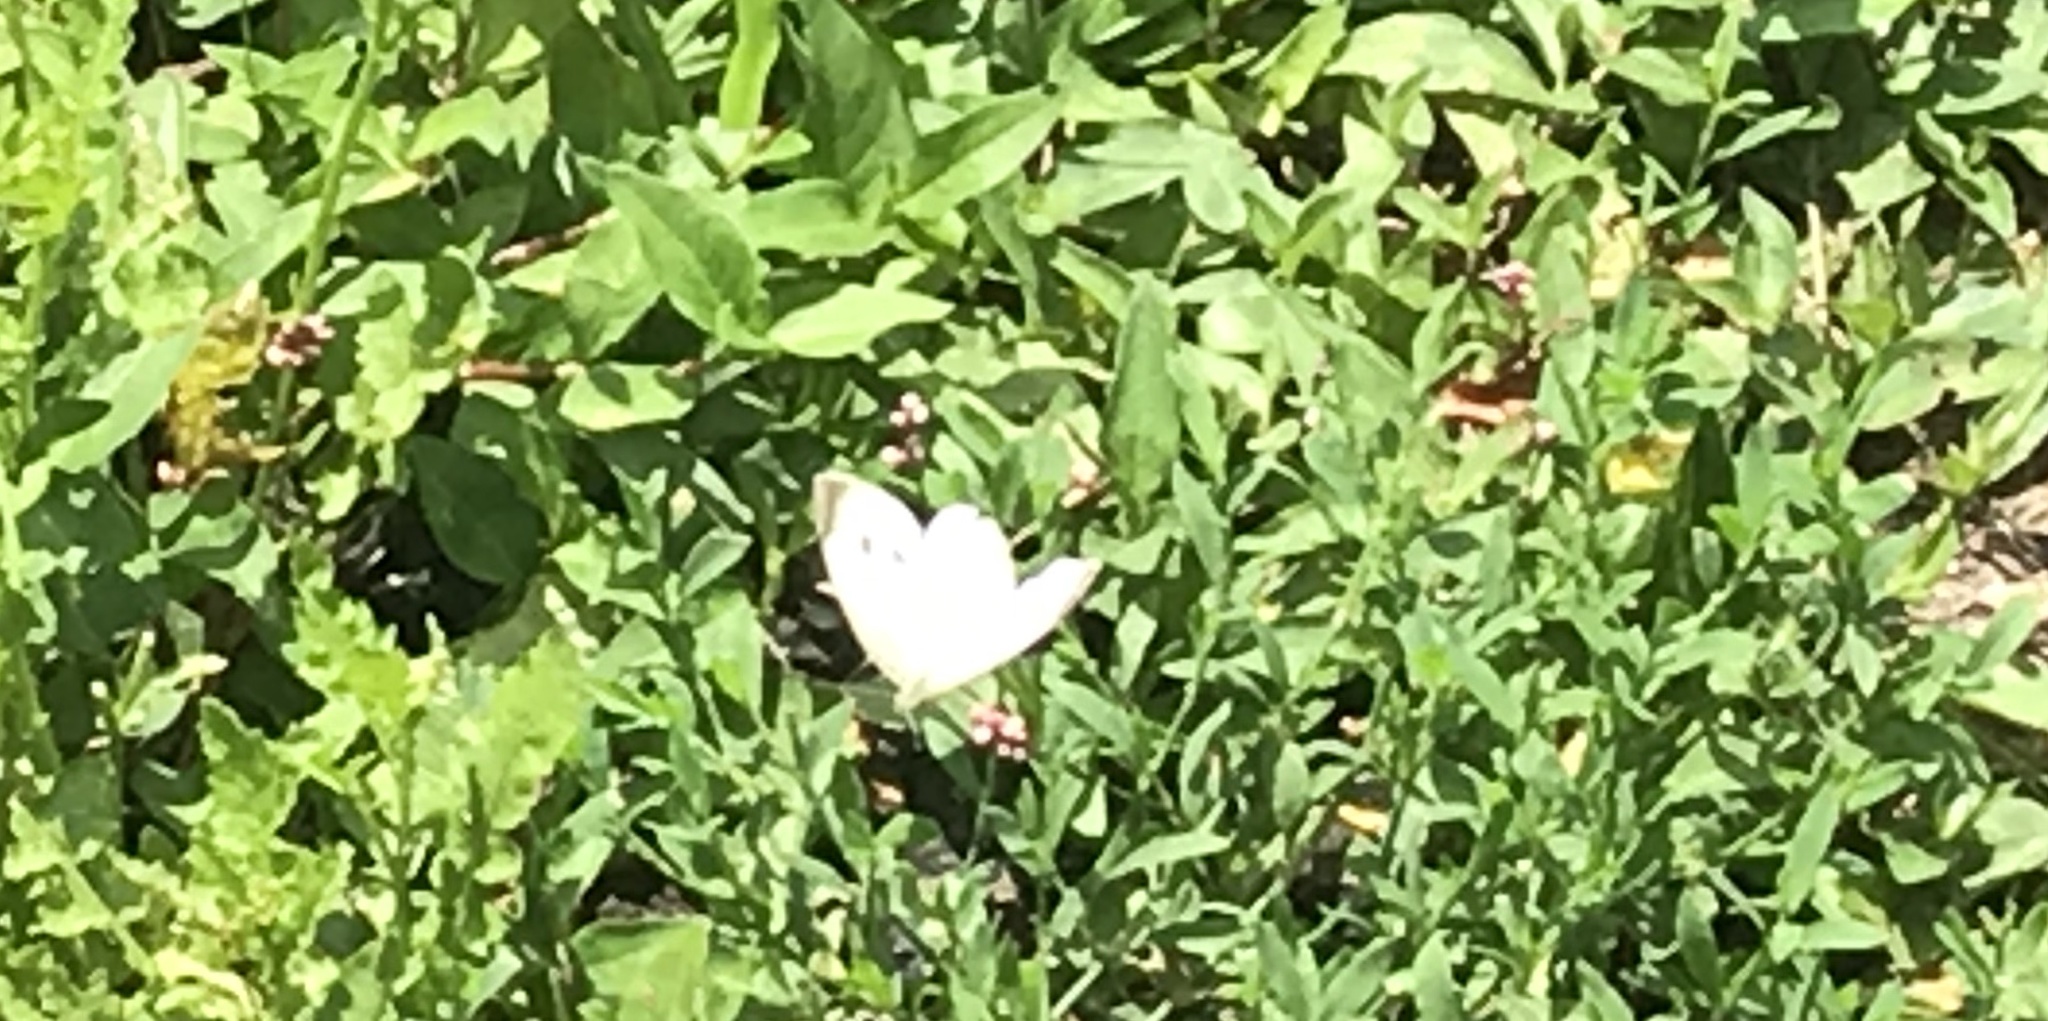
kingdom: Animalia
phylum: Arthropoda
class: Insecta
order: Lepidoptera
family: Pieridae
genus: Pieris
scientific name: Pieris rapae
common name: Small white
